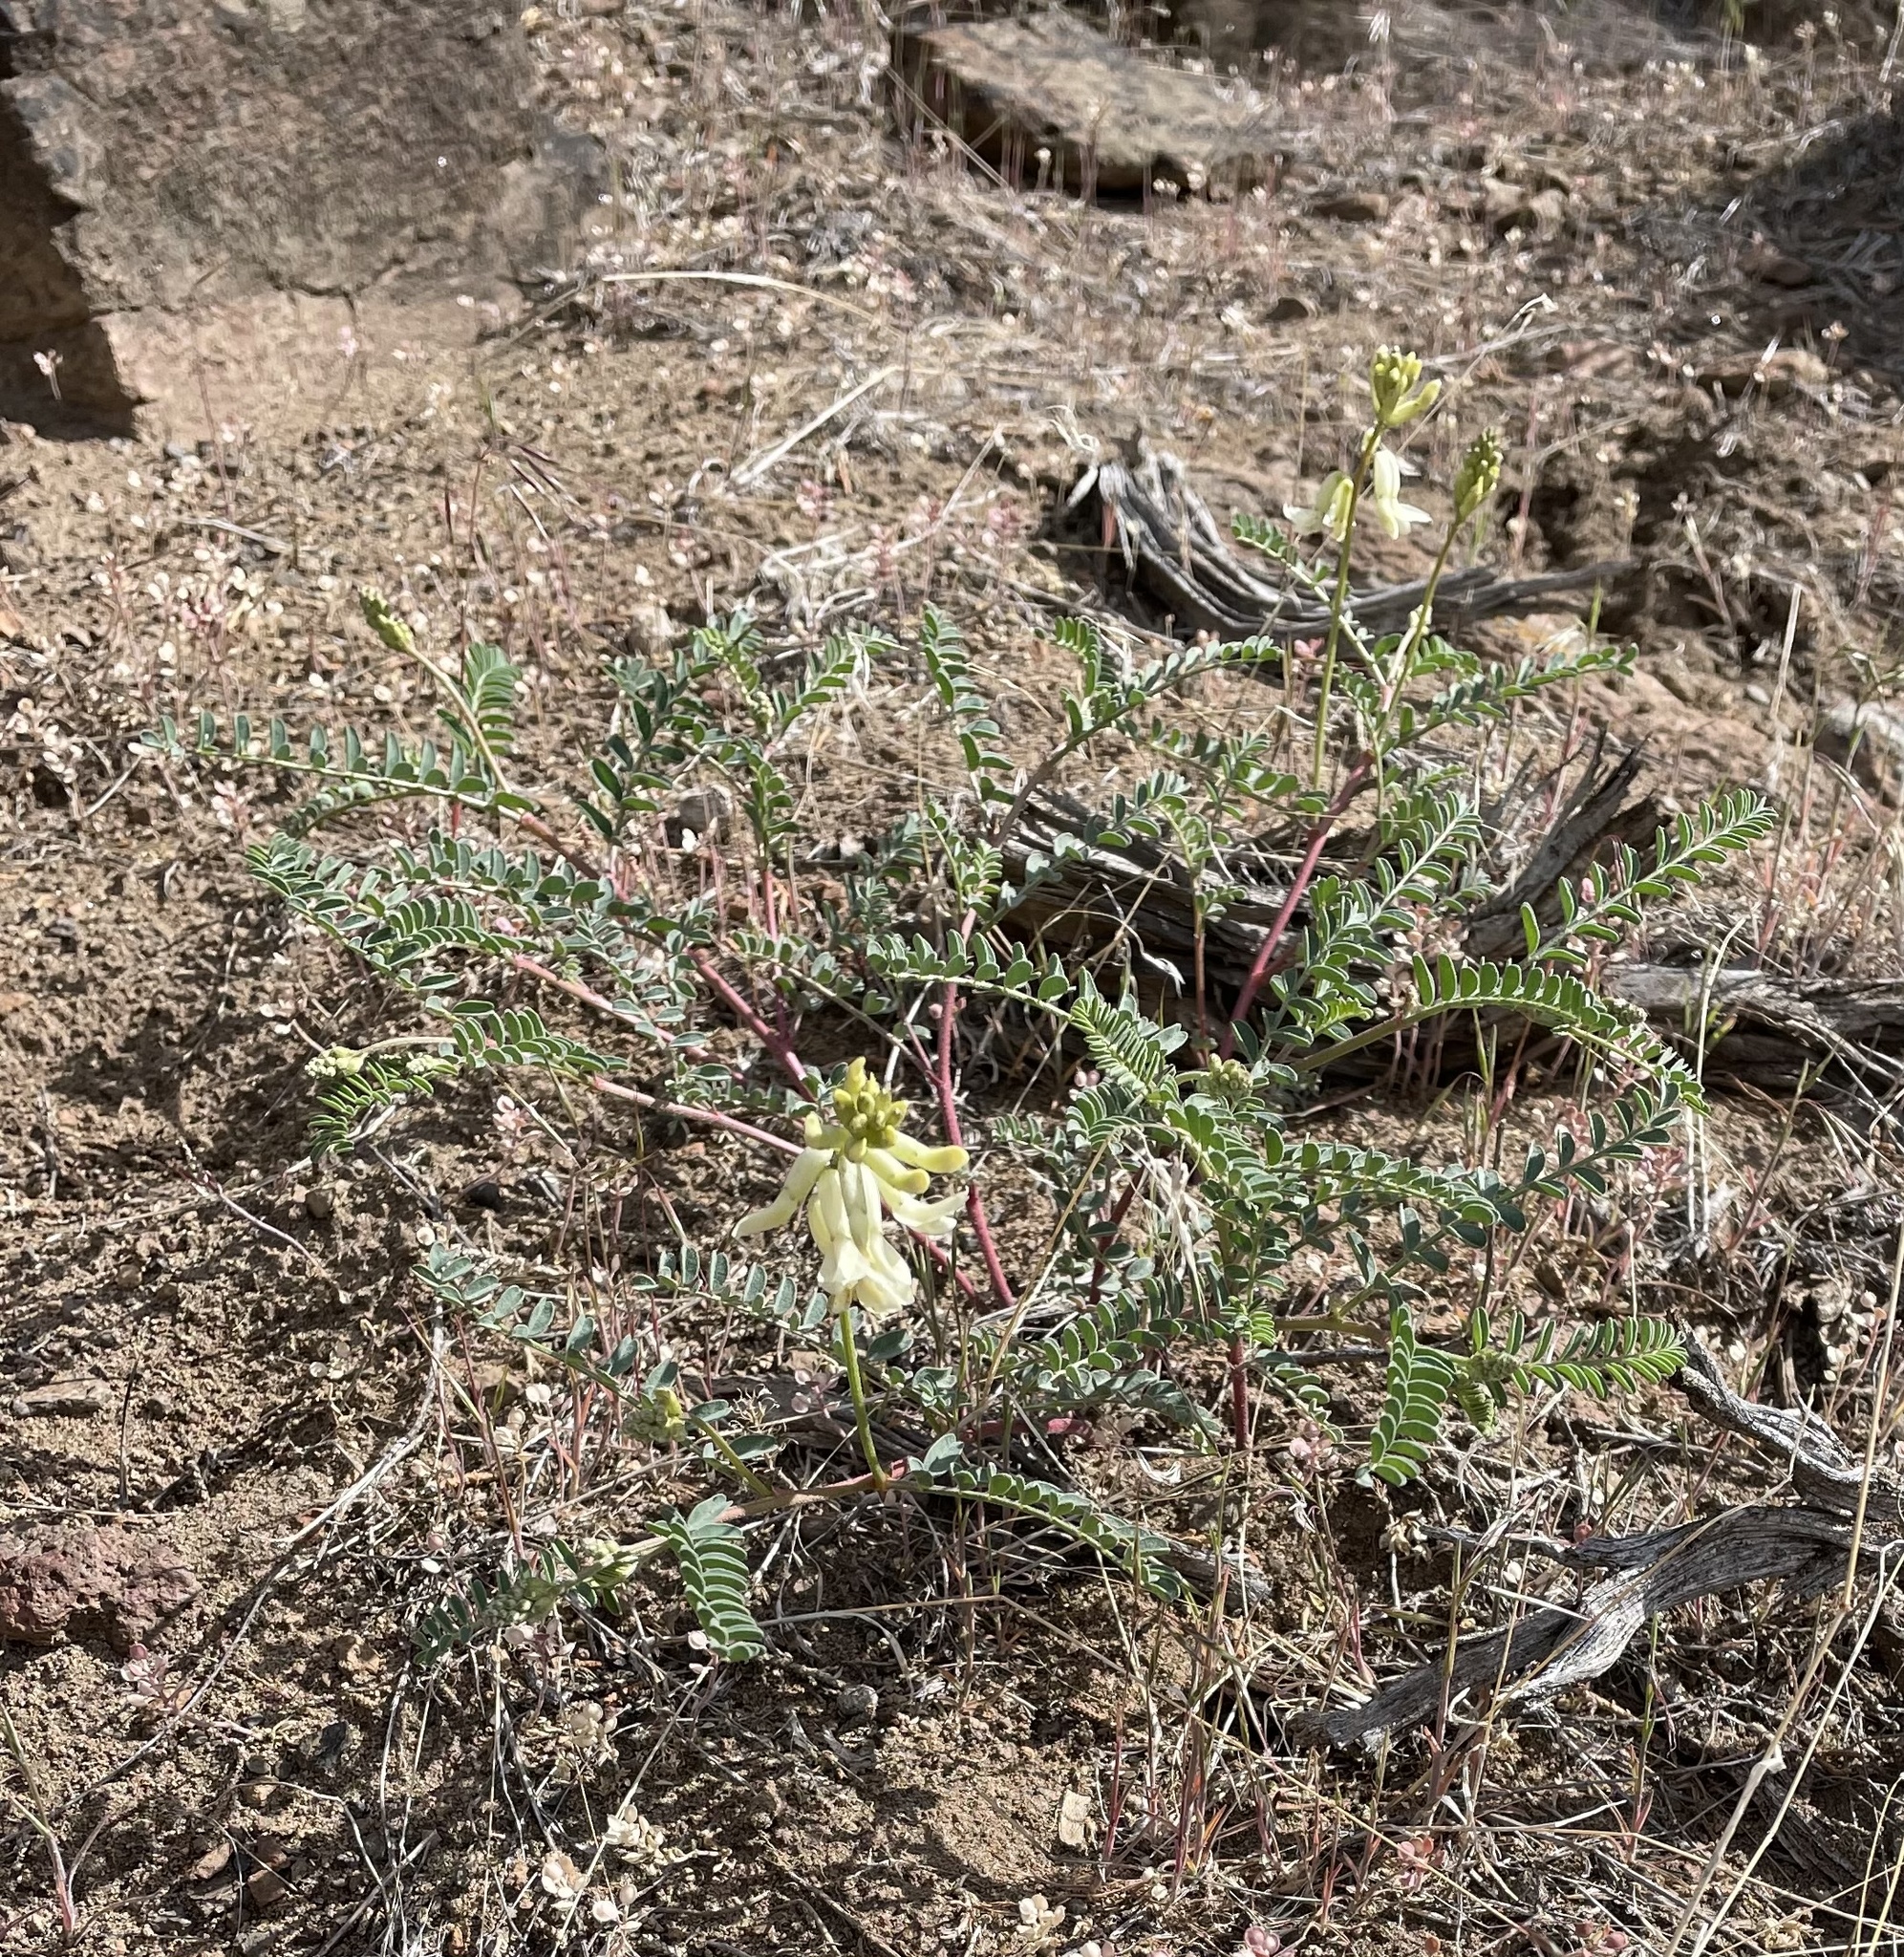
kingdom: Plantae
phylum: Tracheophyta
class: Magnoliopsida
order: Fabales
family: Fabaceae
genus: Astragalus
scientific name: Astragalus curvicarpus
